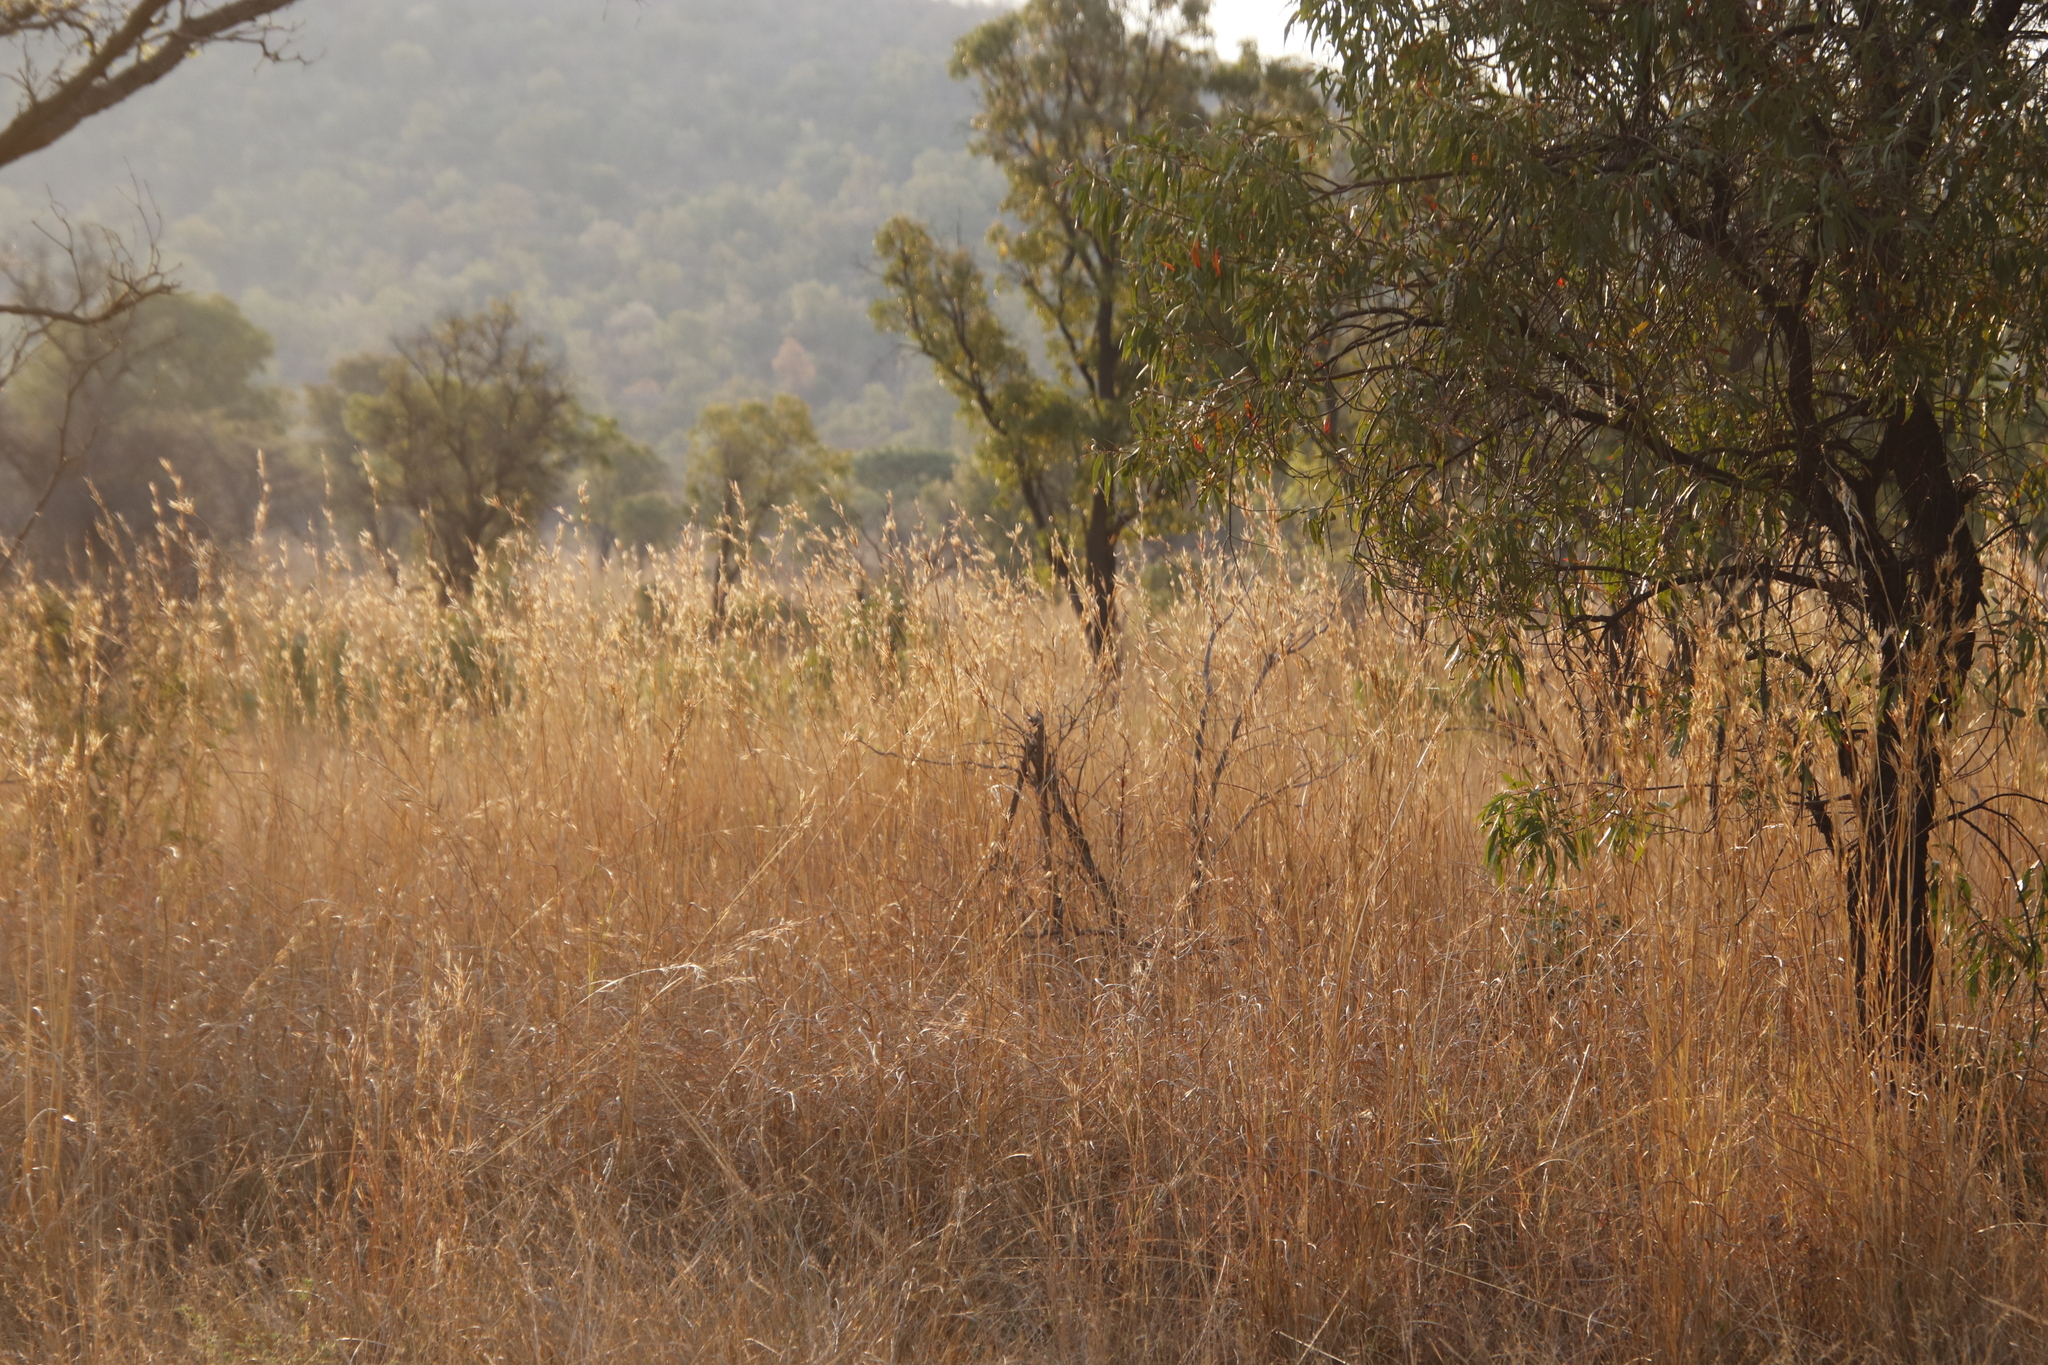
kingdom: Plantae
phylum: Tracheophyta
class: Magnoliopsida
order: Proteales
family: Proteaceae
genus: Faurea
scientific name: Faurea saligna
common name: African bean
